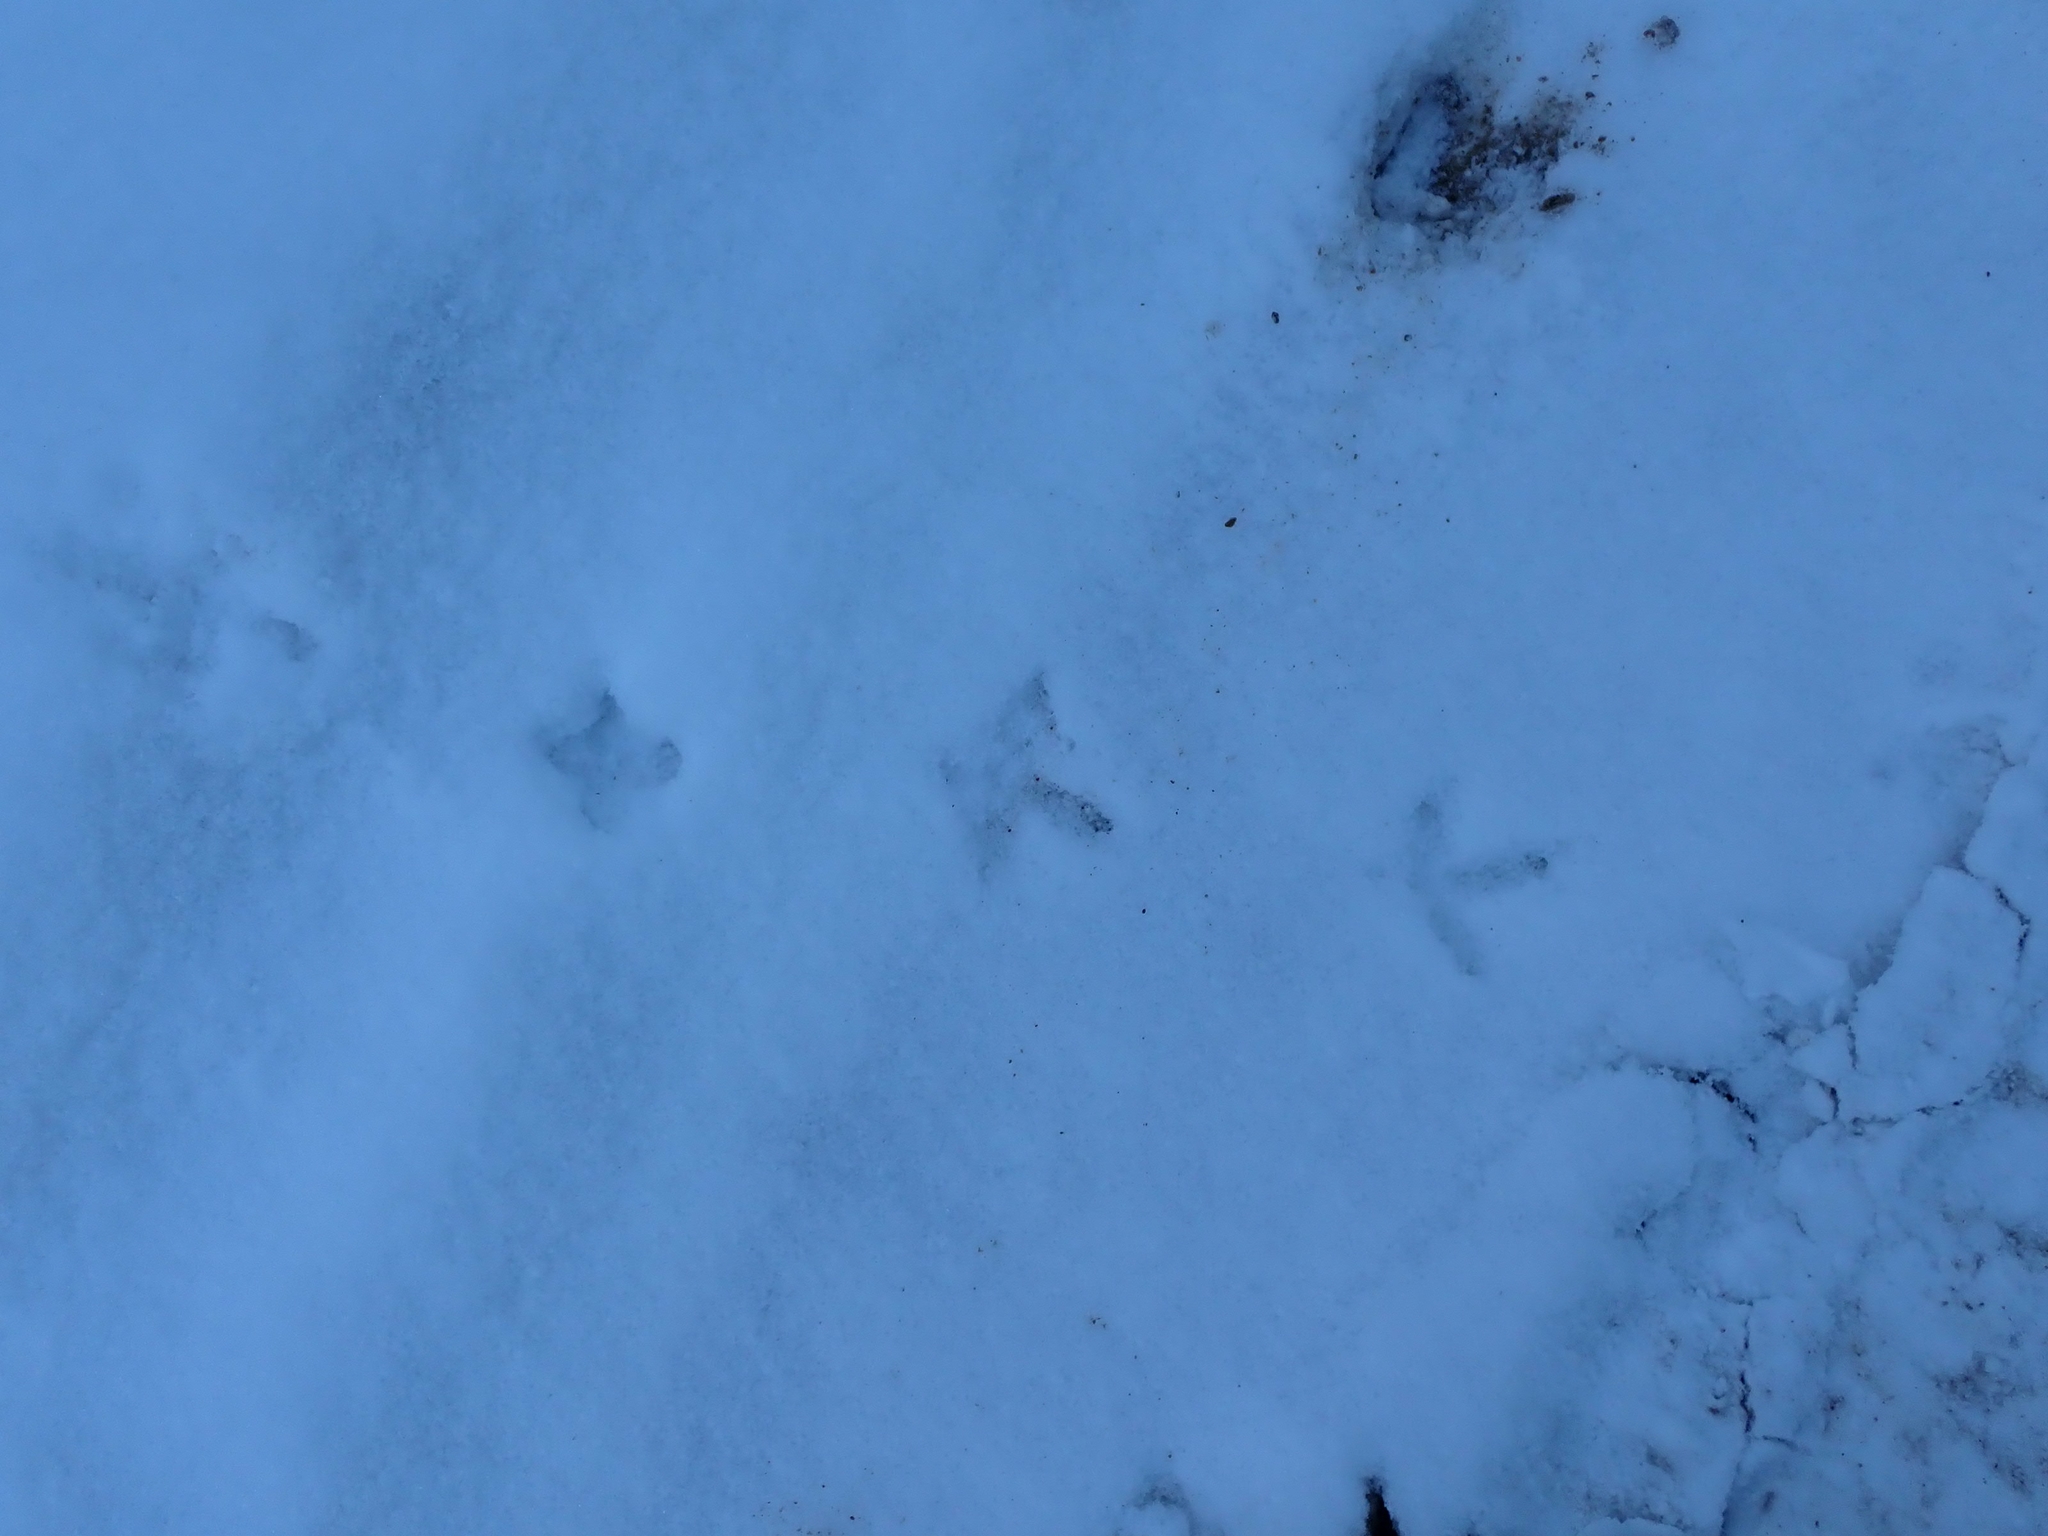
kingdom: Animalia
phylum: Chordata
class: Aves
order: Galliformes
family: Phasianidae
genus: Bonasa
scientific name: Bonasa umbellus
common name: Ruffed grouse
